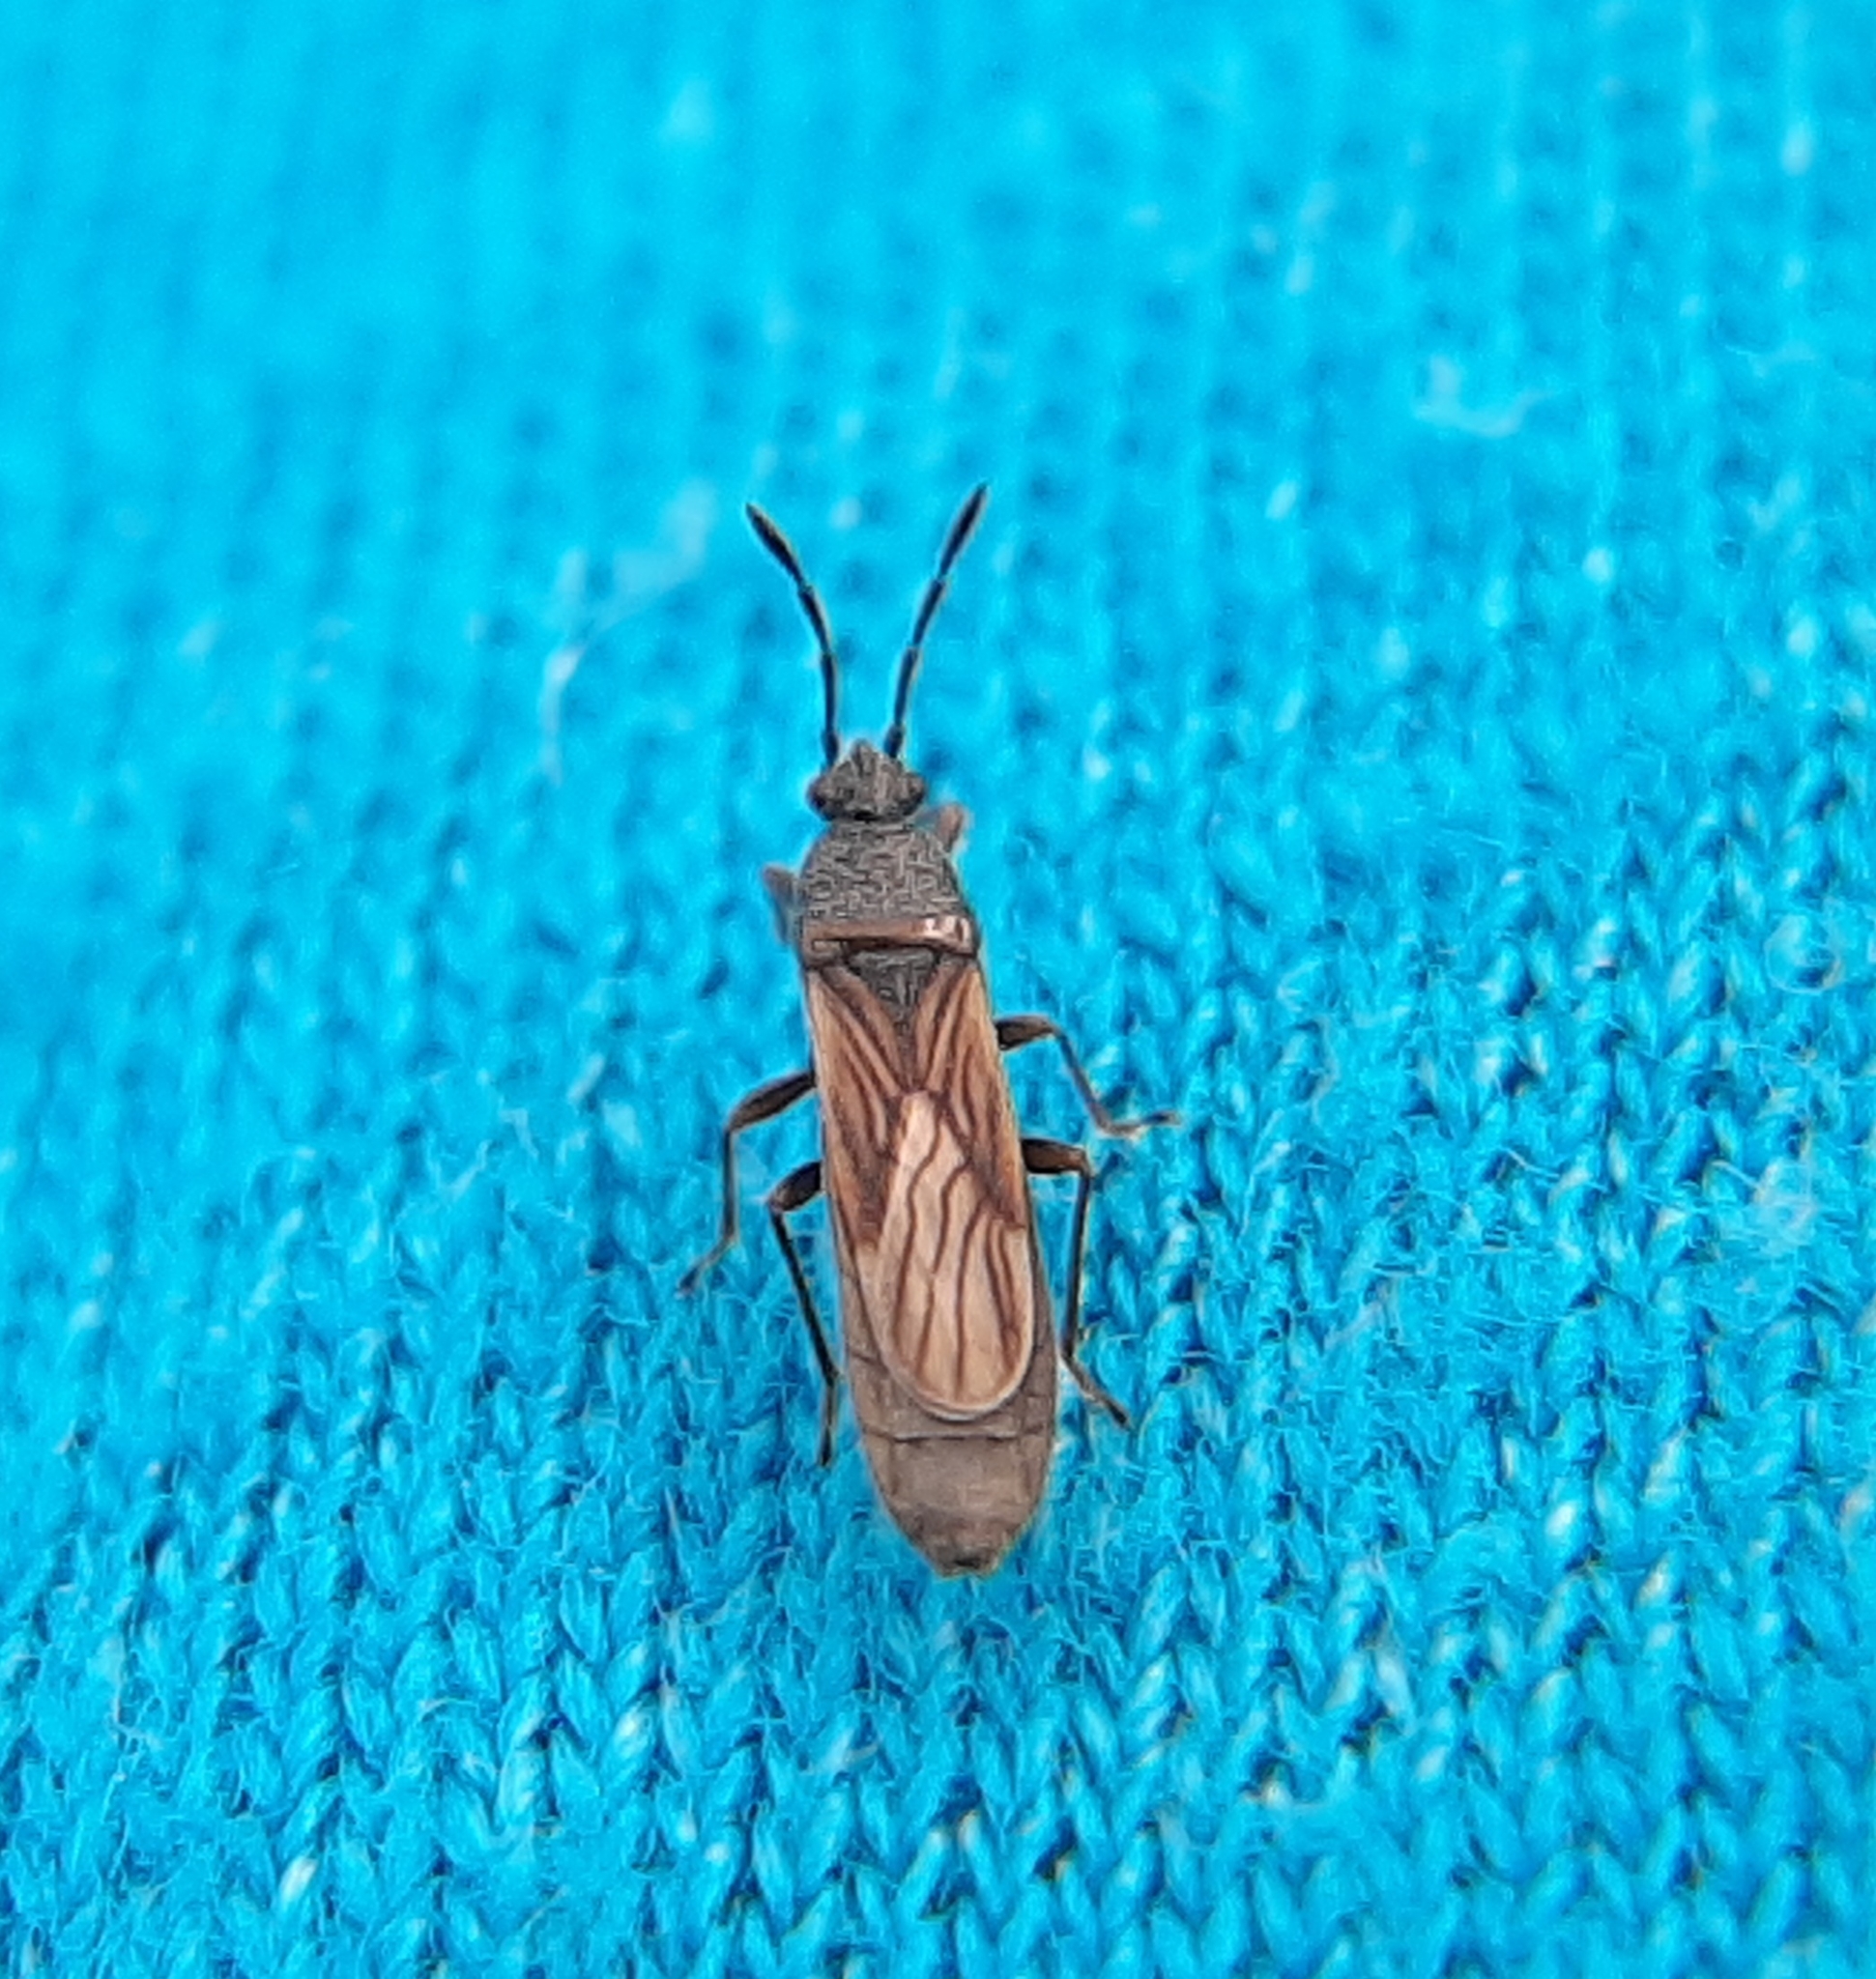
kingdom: Animalia
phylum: Arthropoda
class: Insecta
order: Hemiptera
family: Blissidae
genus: Ischnodemus
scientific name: Ischnodemus falicus
